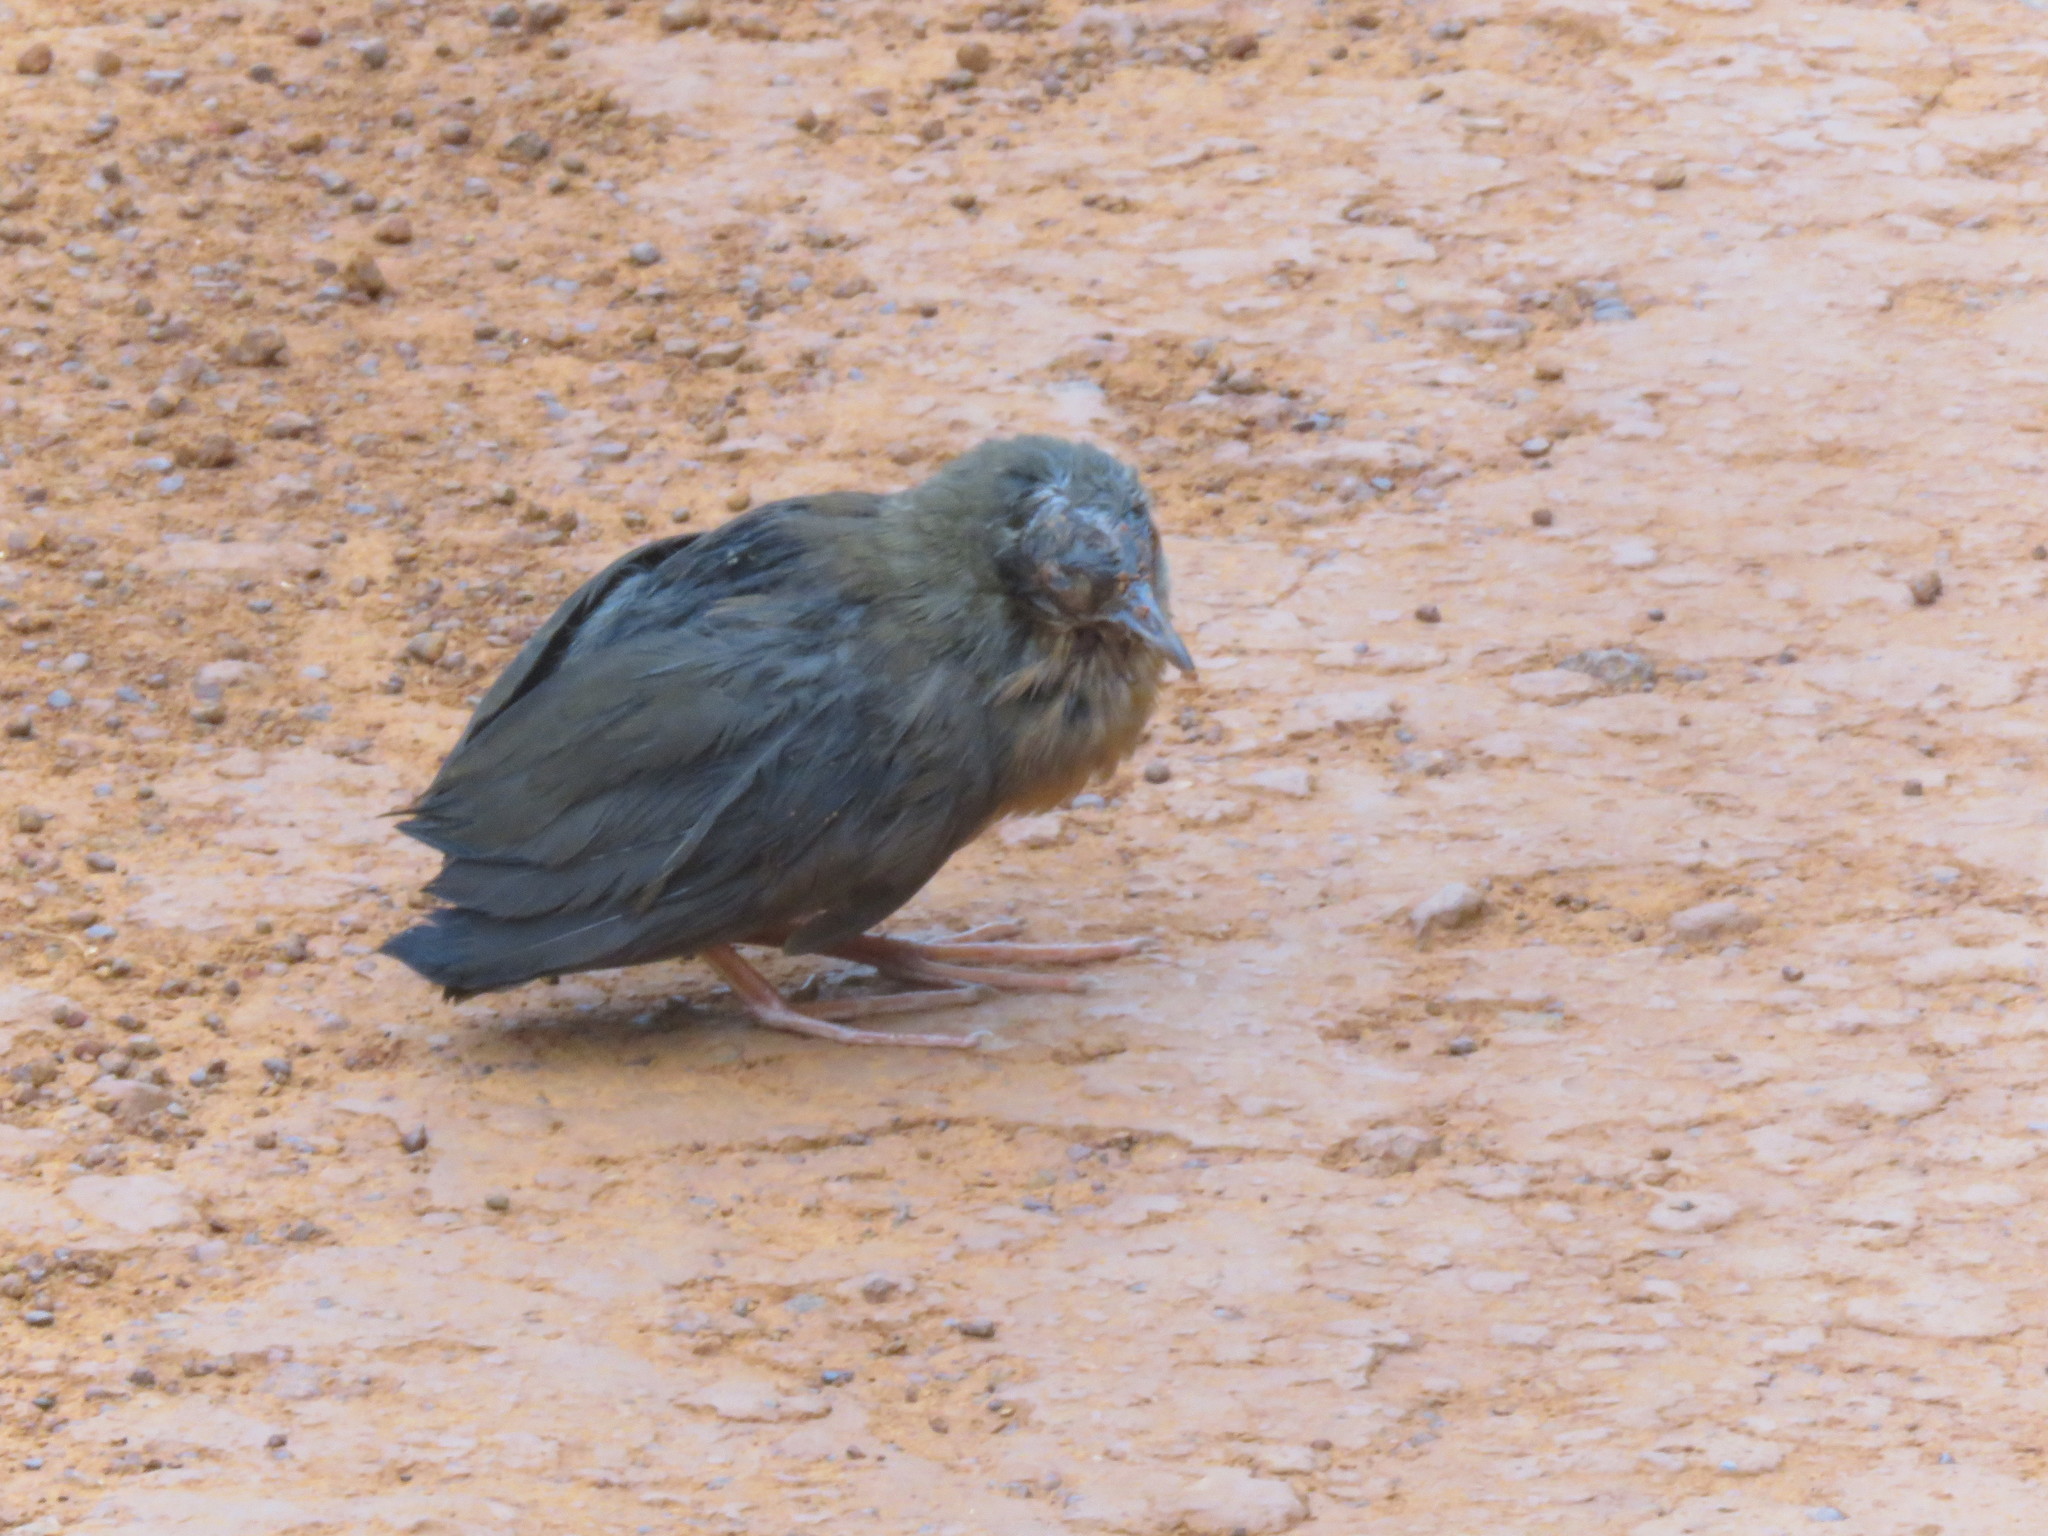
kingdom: Animalia
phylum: Chordata
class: Aves
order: Gruiformes
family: Rallidae
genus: Anurolimnas
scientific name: Anurolimnas viridis
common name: Russet-crowned crake
